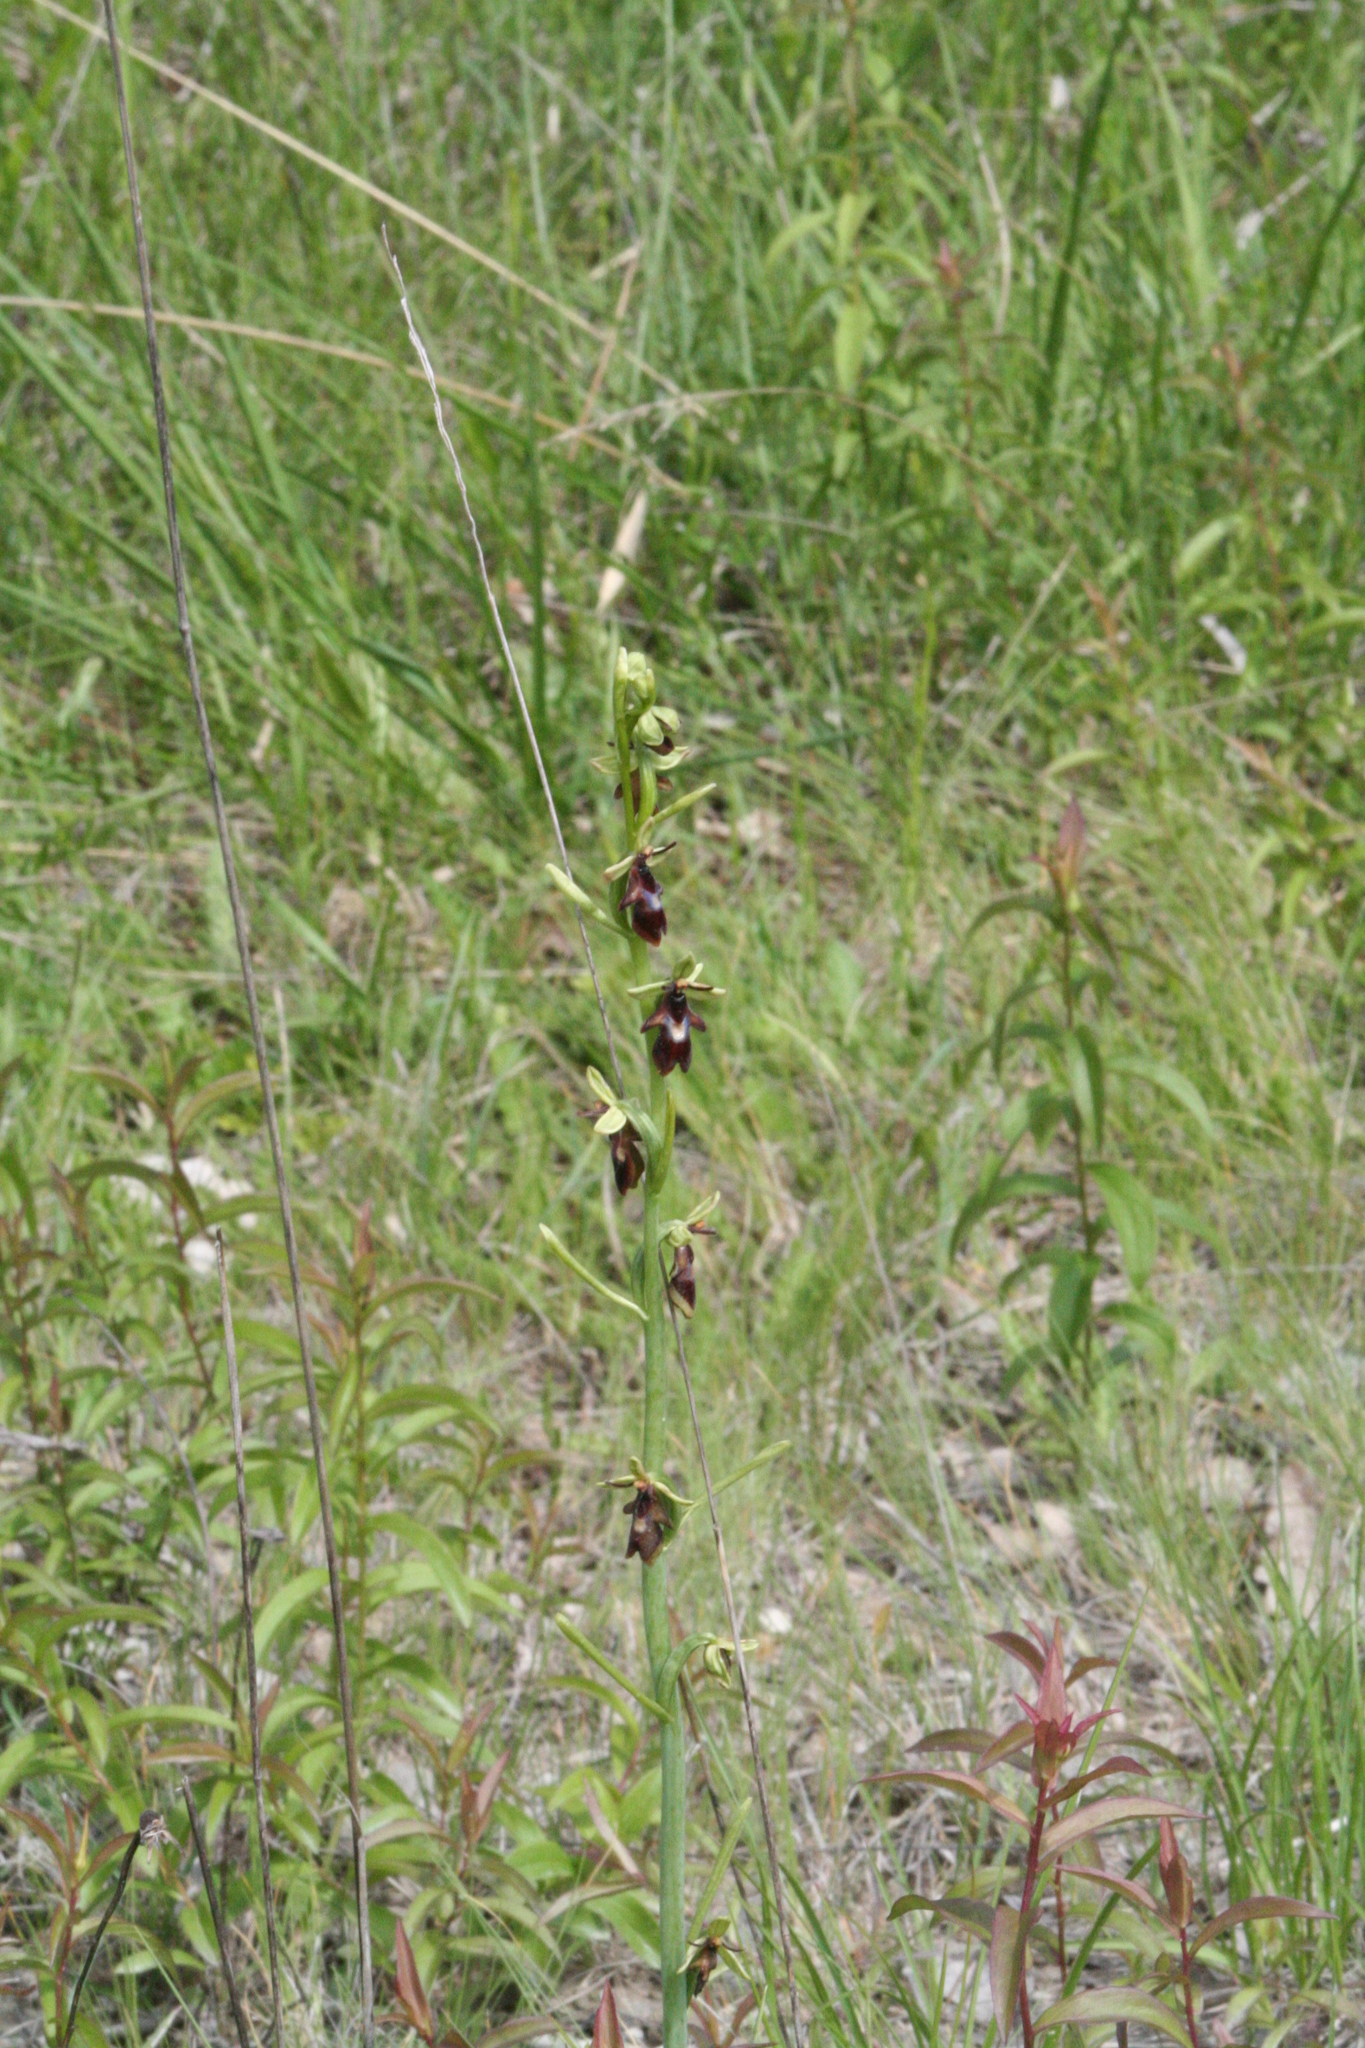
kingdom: Plantae
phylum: Tracheophyta
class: Liliopsida
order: Asparagales
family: Orchidaceae
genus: Ophrys
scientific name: Ophrys insectifera
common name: Fly orchid
